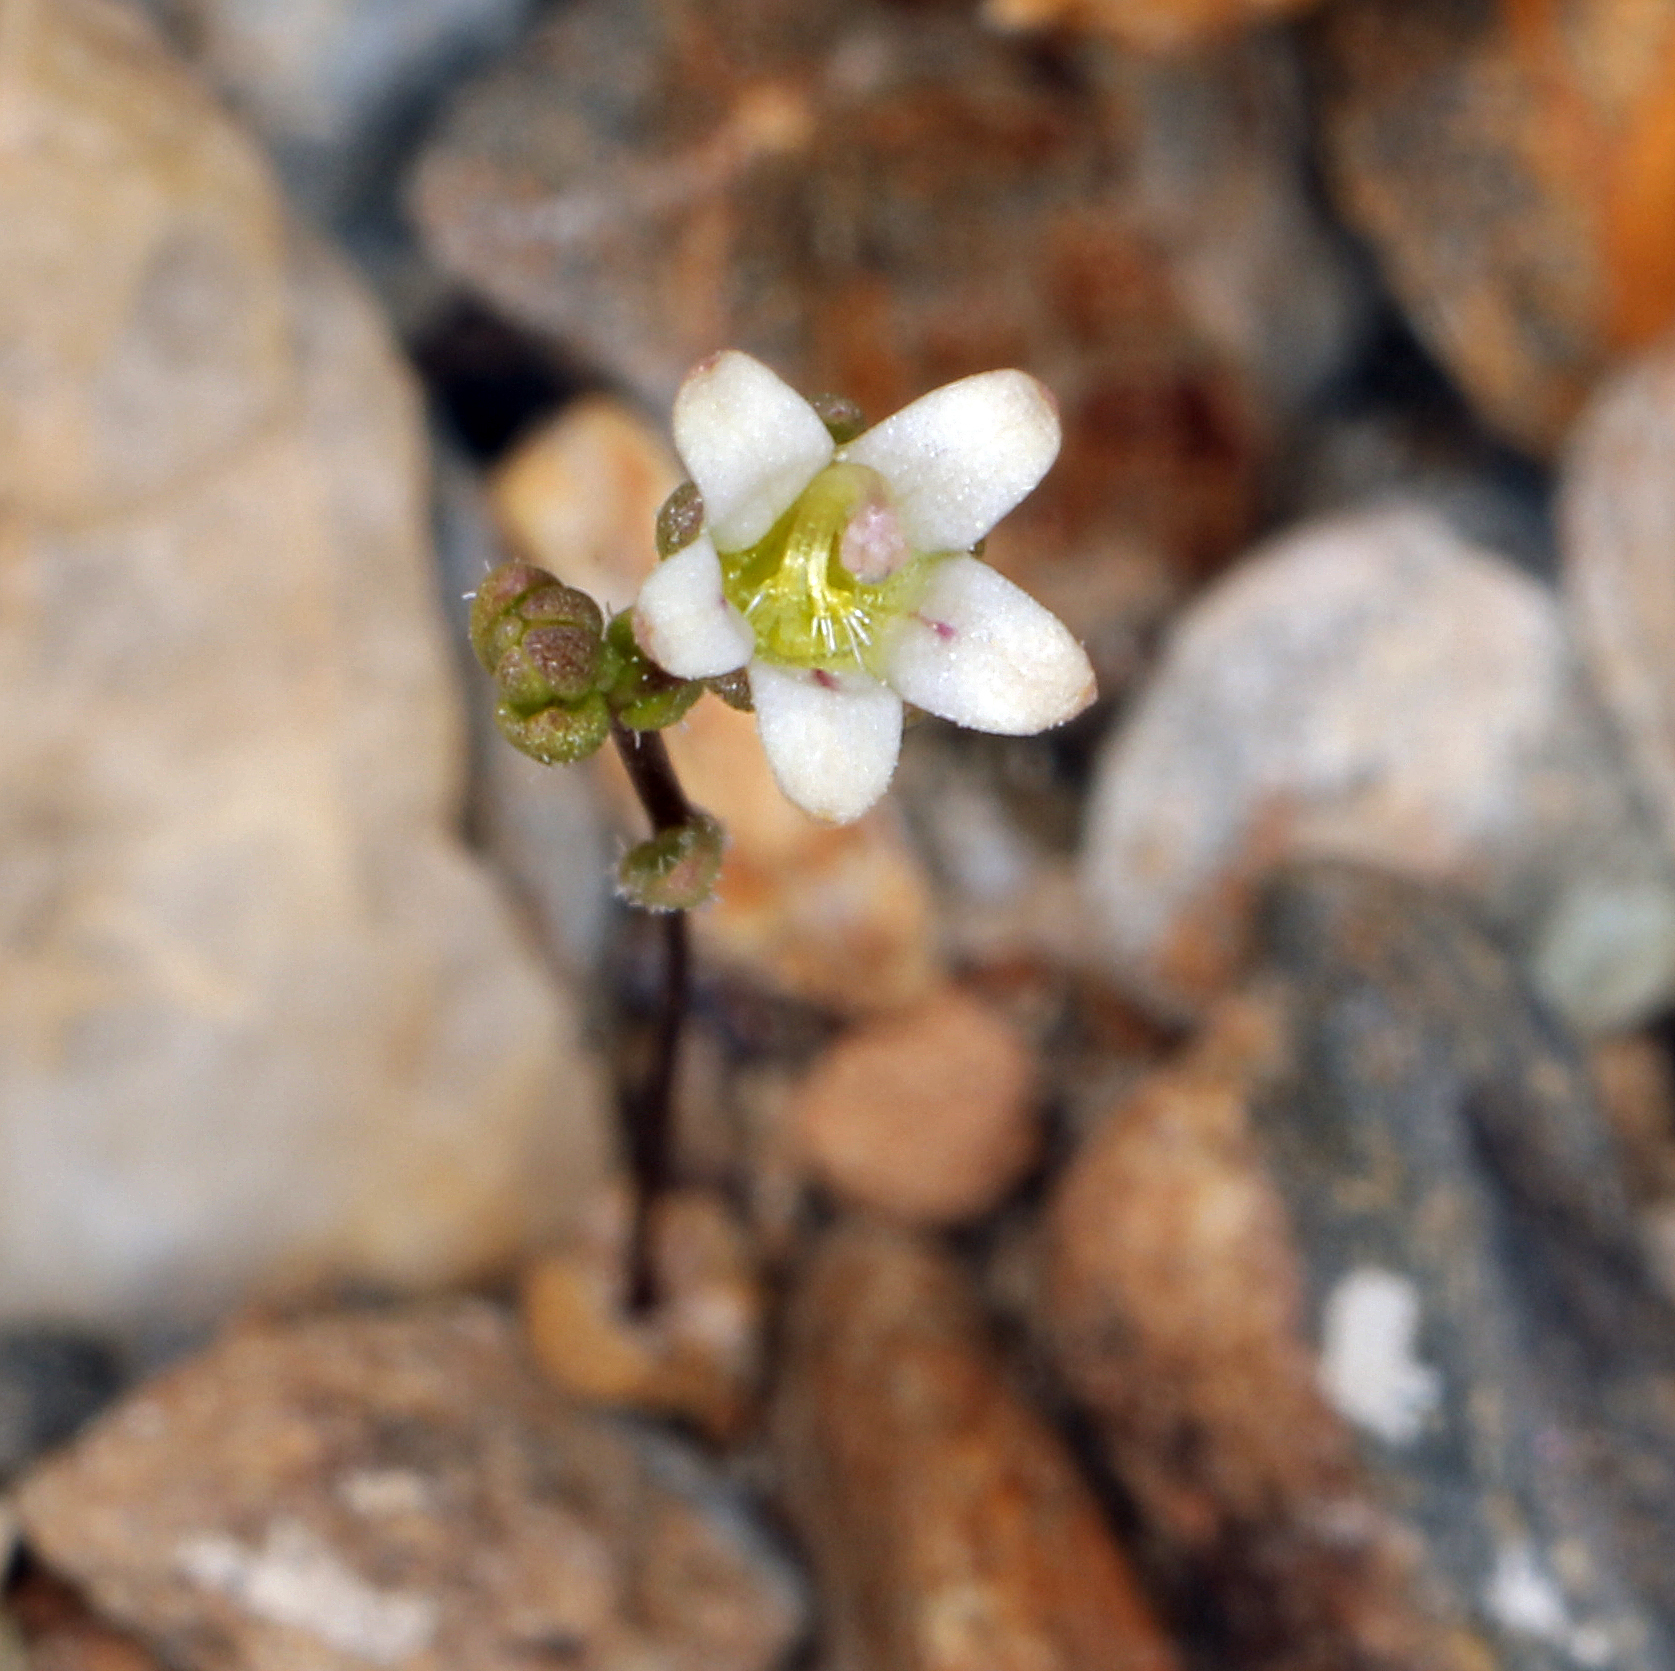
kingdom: Plantae
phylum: Tracheophyta
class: Magnoliopsida
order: Asterales
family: Campanulaceae
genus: Nemacladus
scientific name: Nemacladus inyoensis
